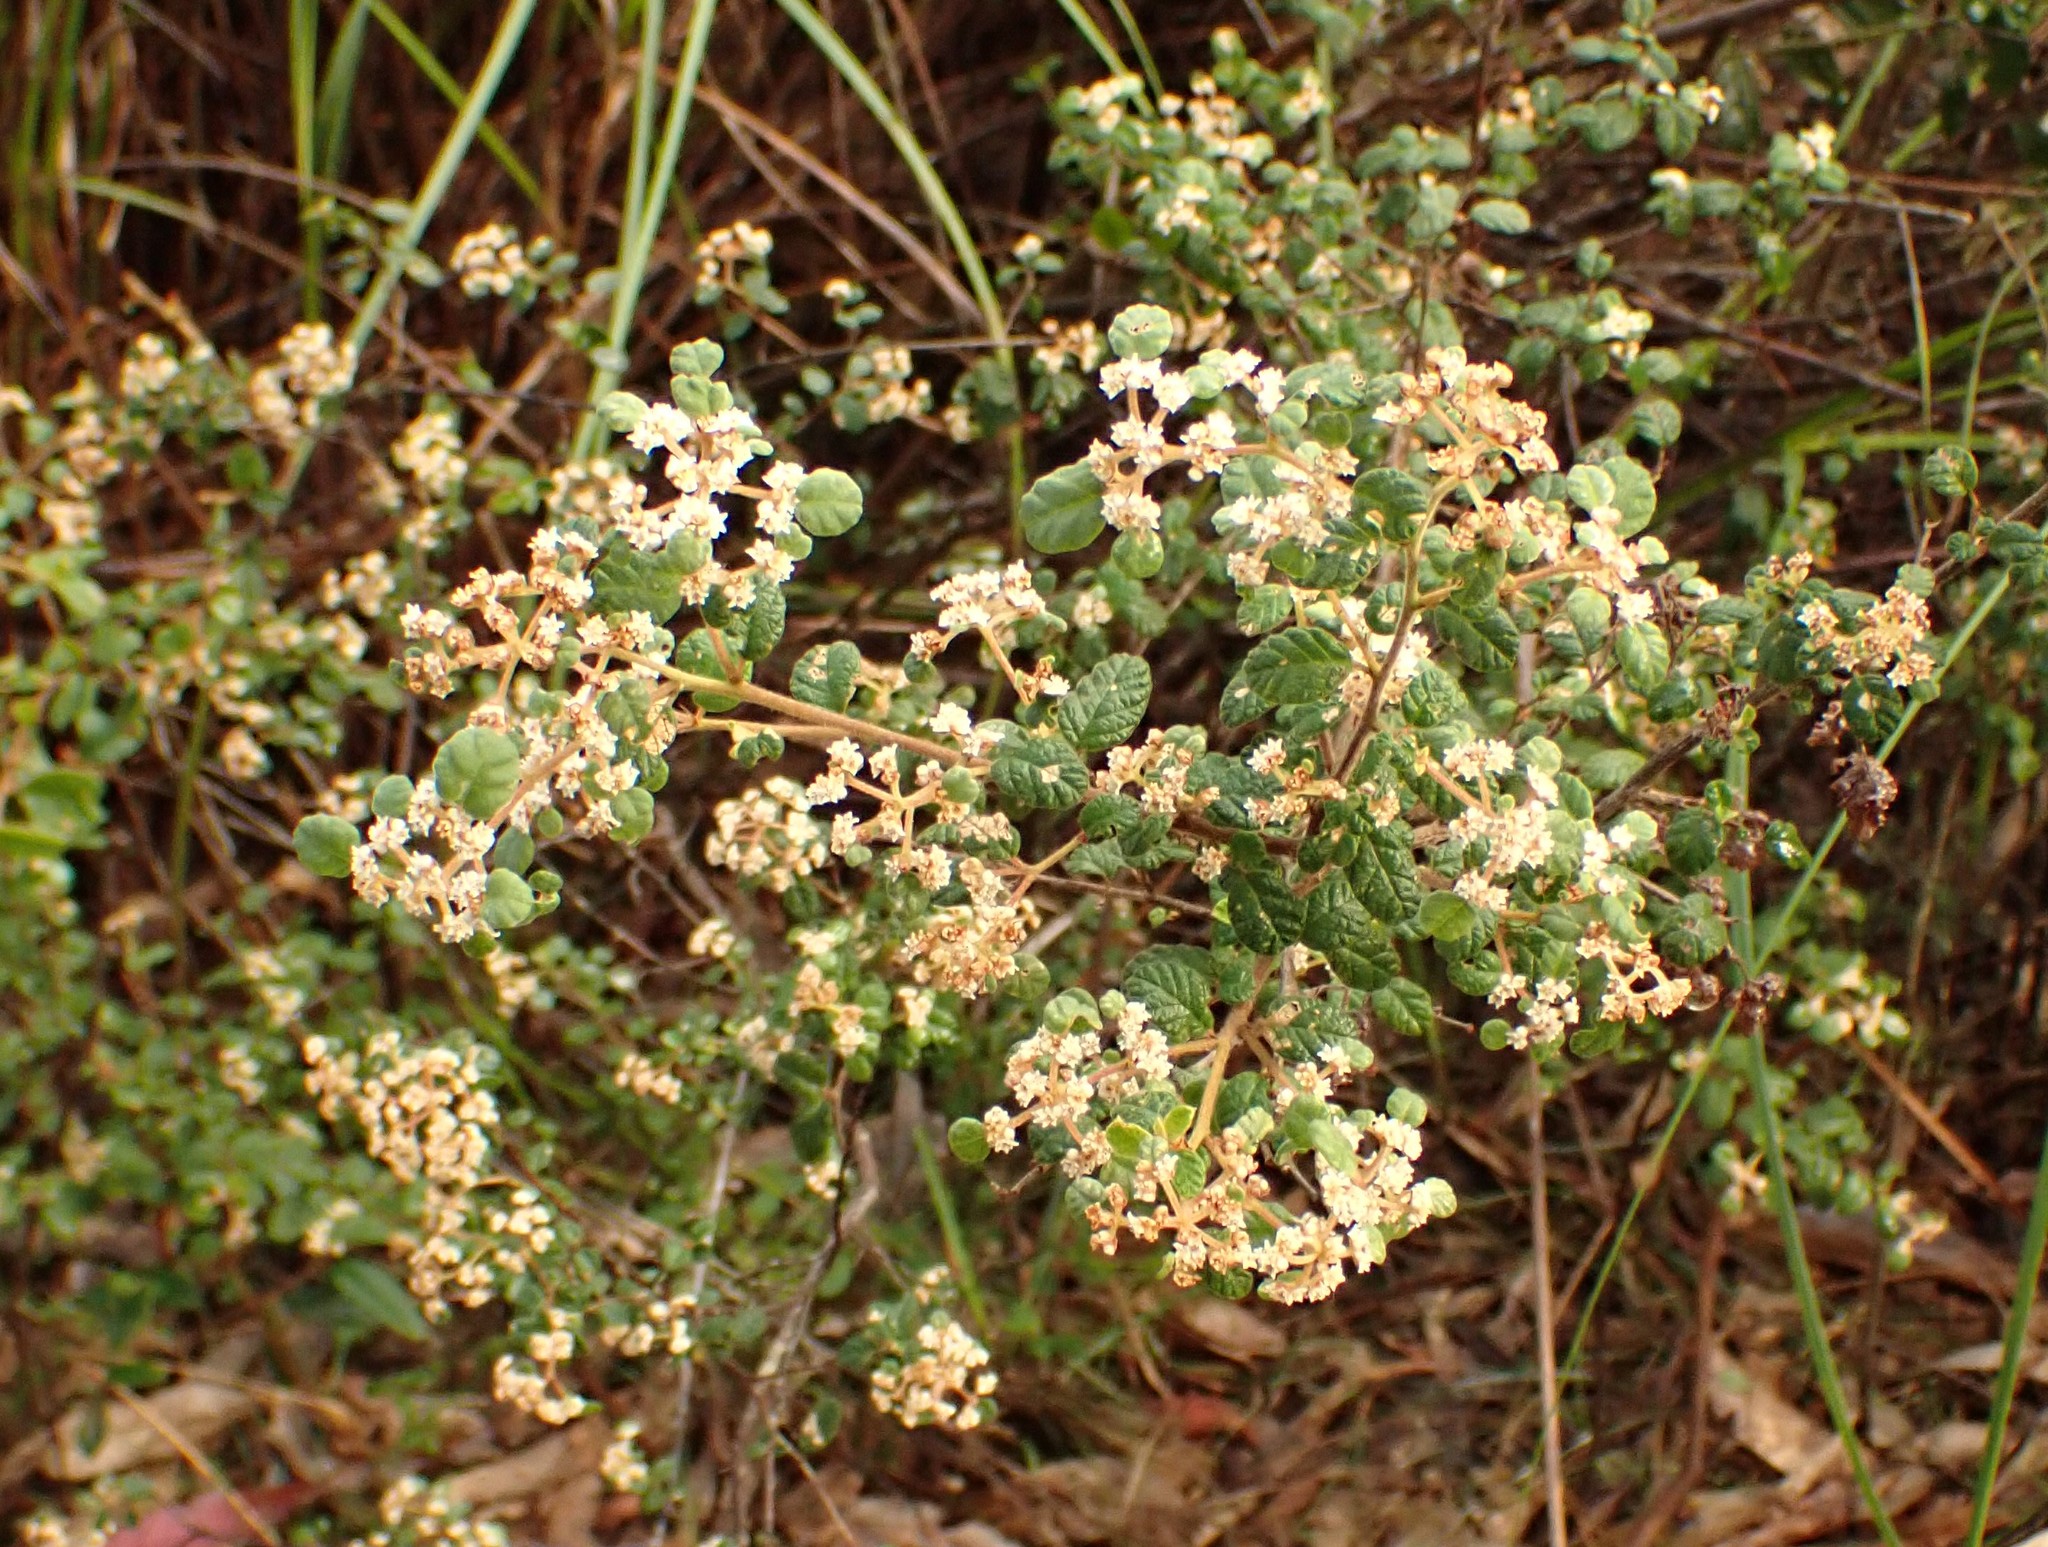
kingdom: Plantae
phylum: Tracheophyta
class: Magnoliopsida
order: Rosales
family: Rhamnaceae
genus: Spyridium
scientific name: Spyridium parvifolium
